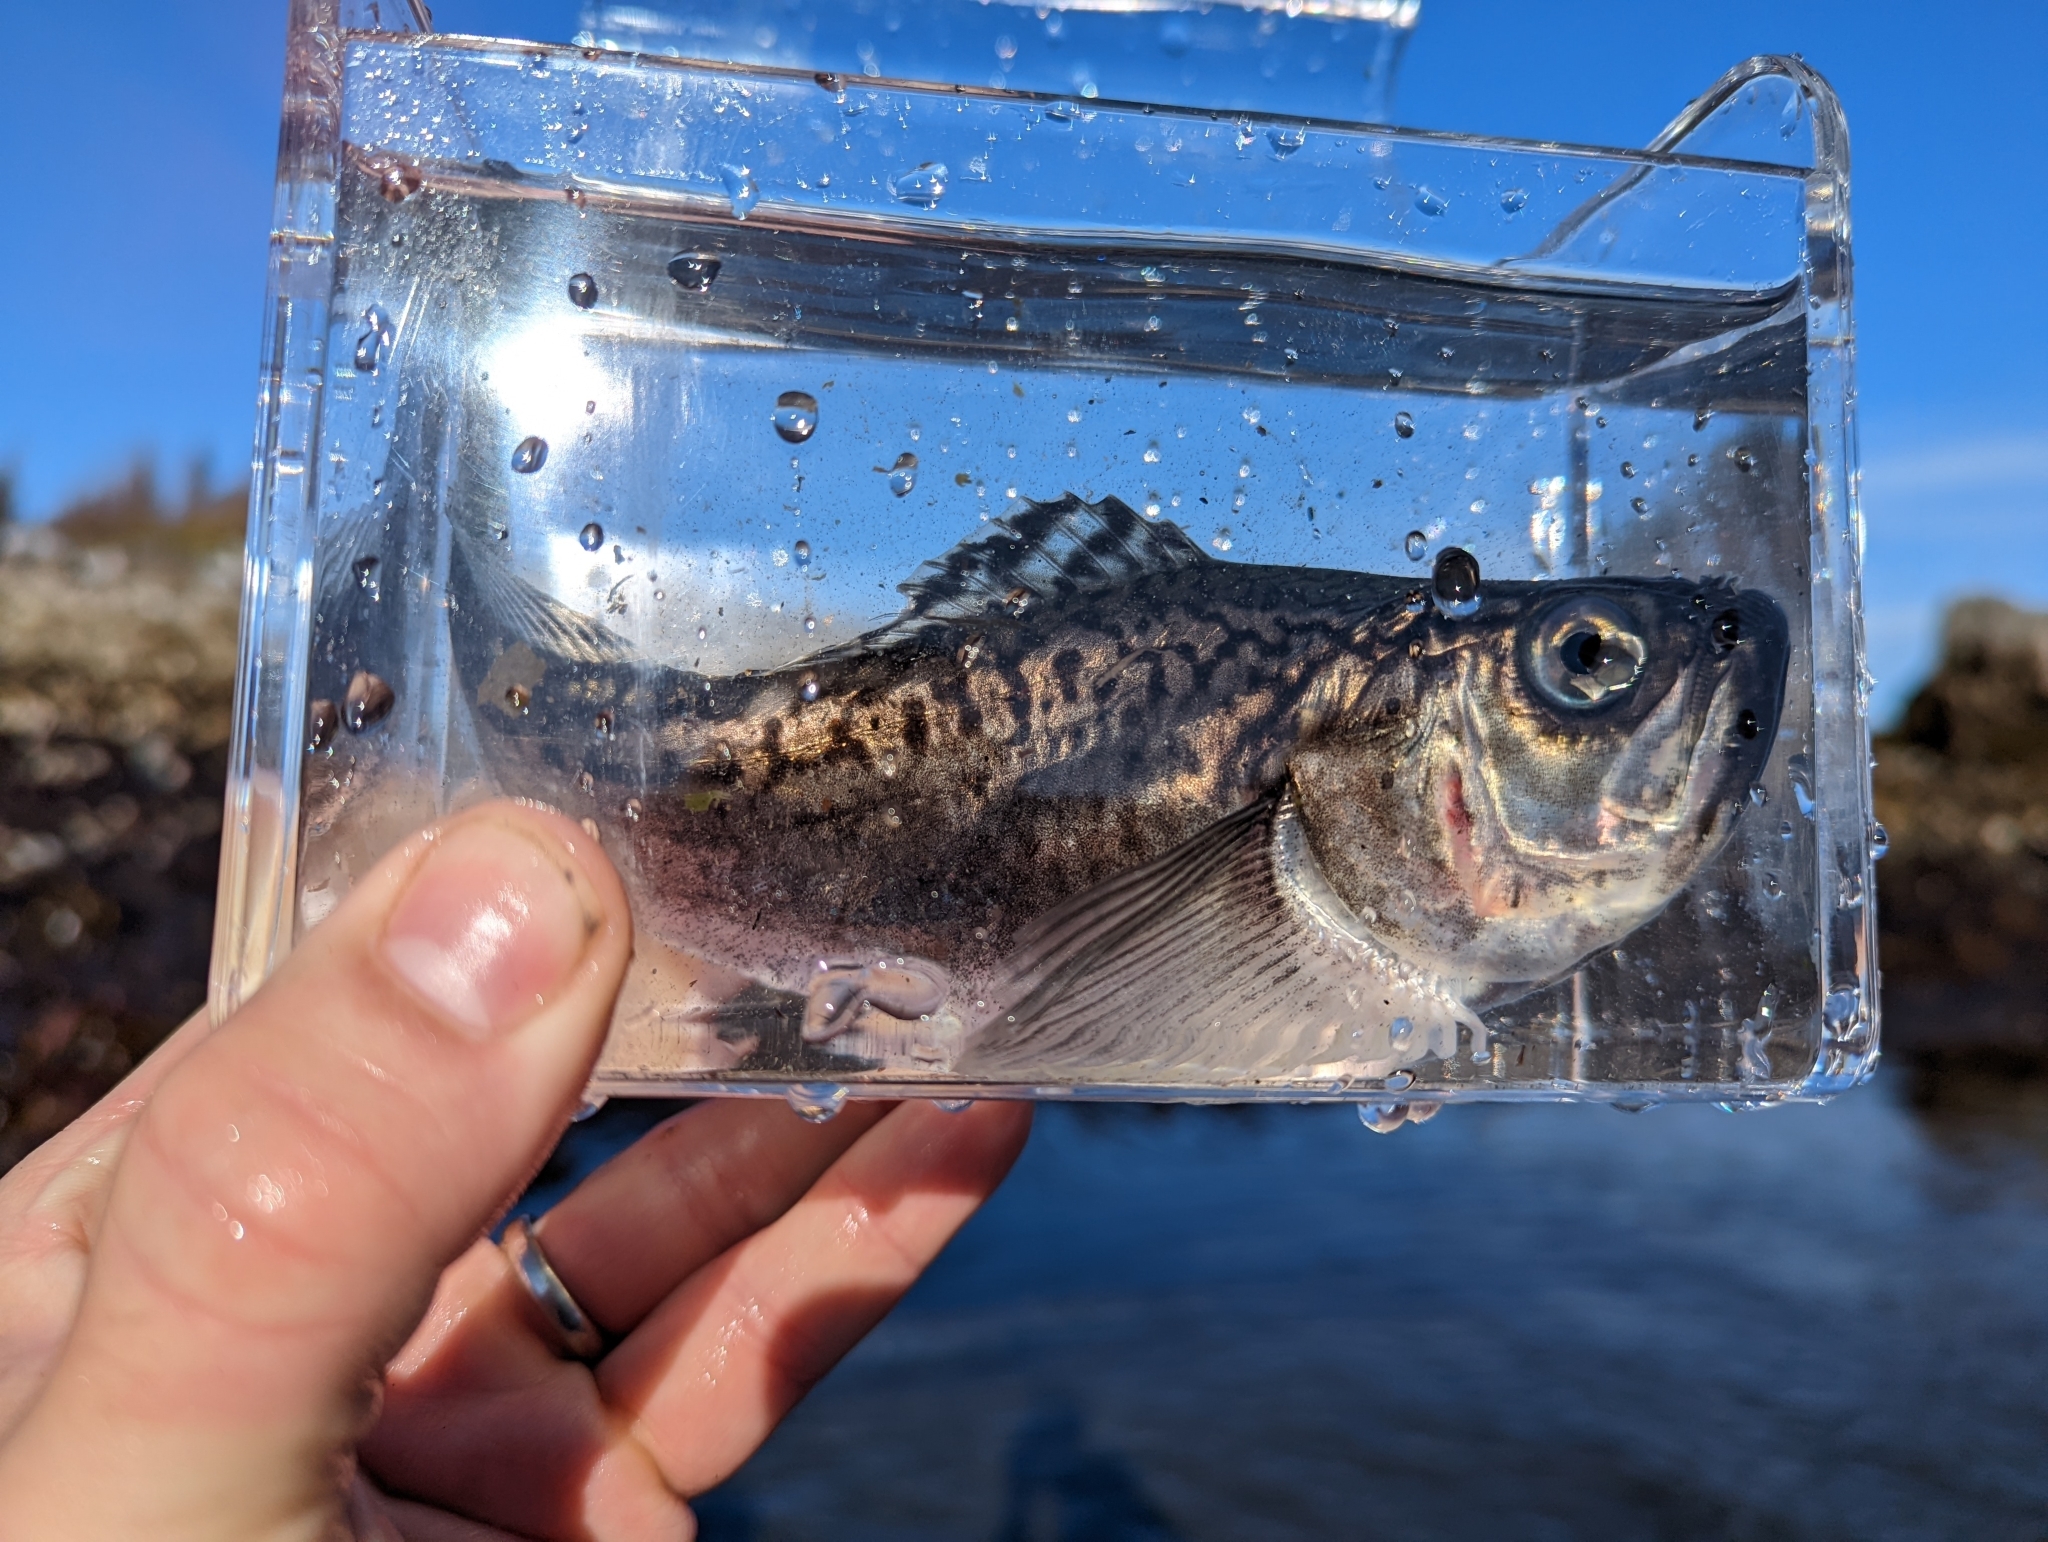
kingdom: Animalia
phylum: Chordata
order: Perciformes
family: Trichodontidae
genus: Trichodon
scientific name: Trichodon trichodon
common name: Pacific sandfish
